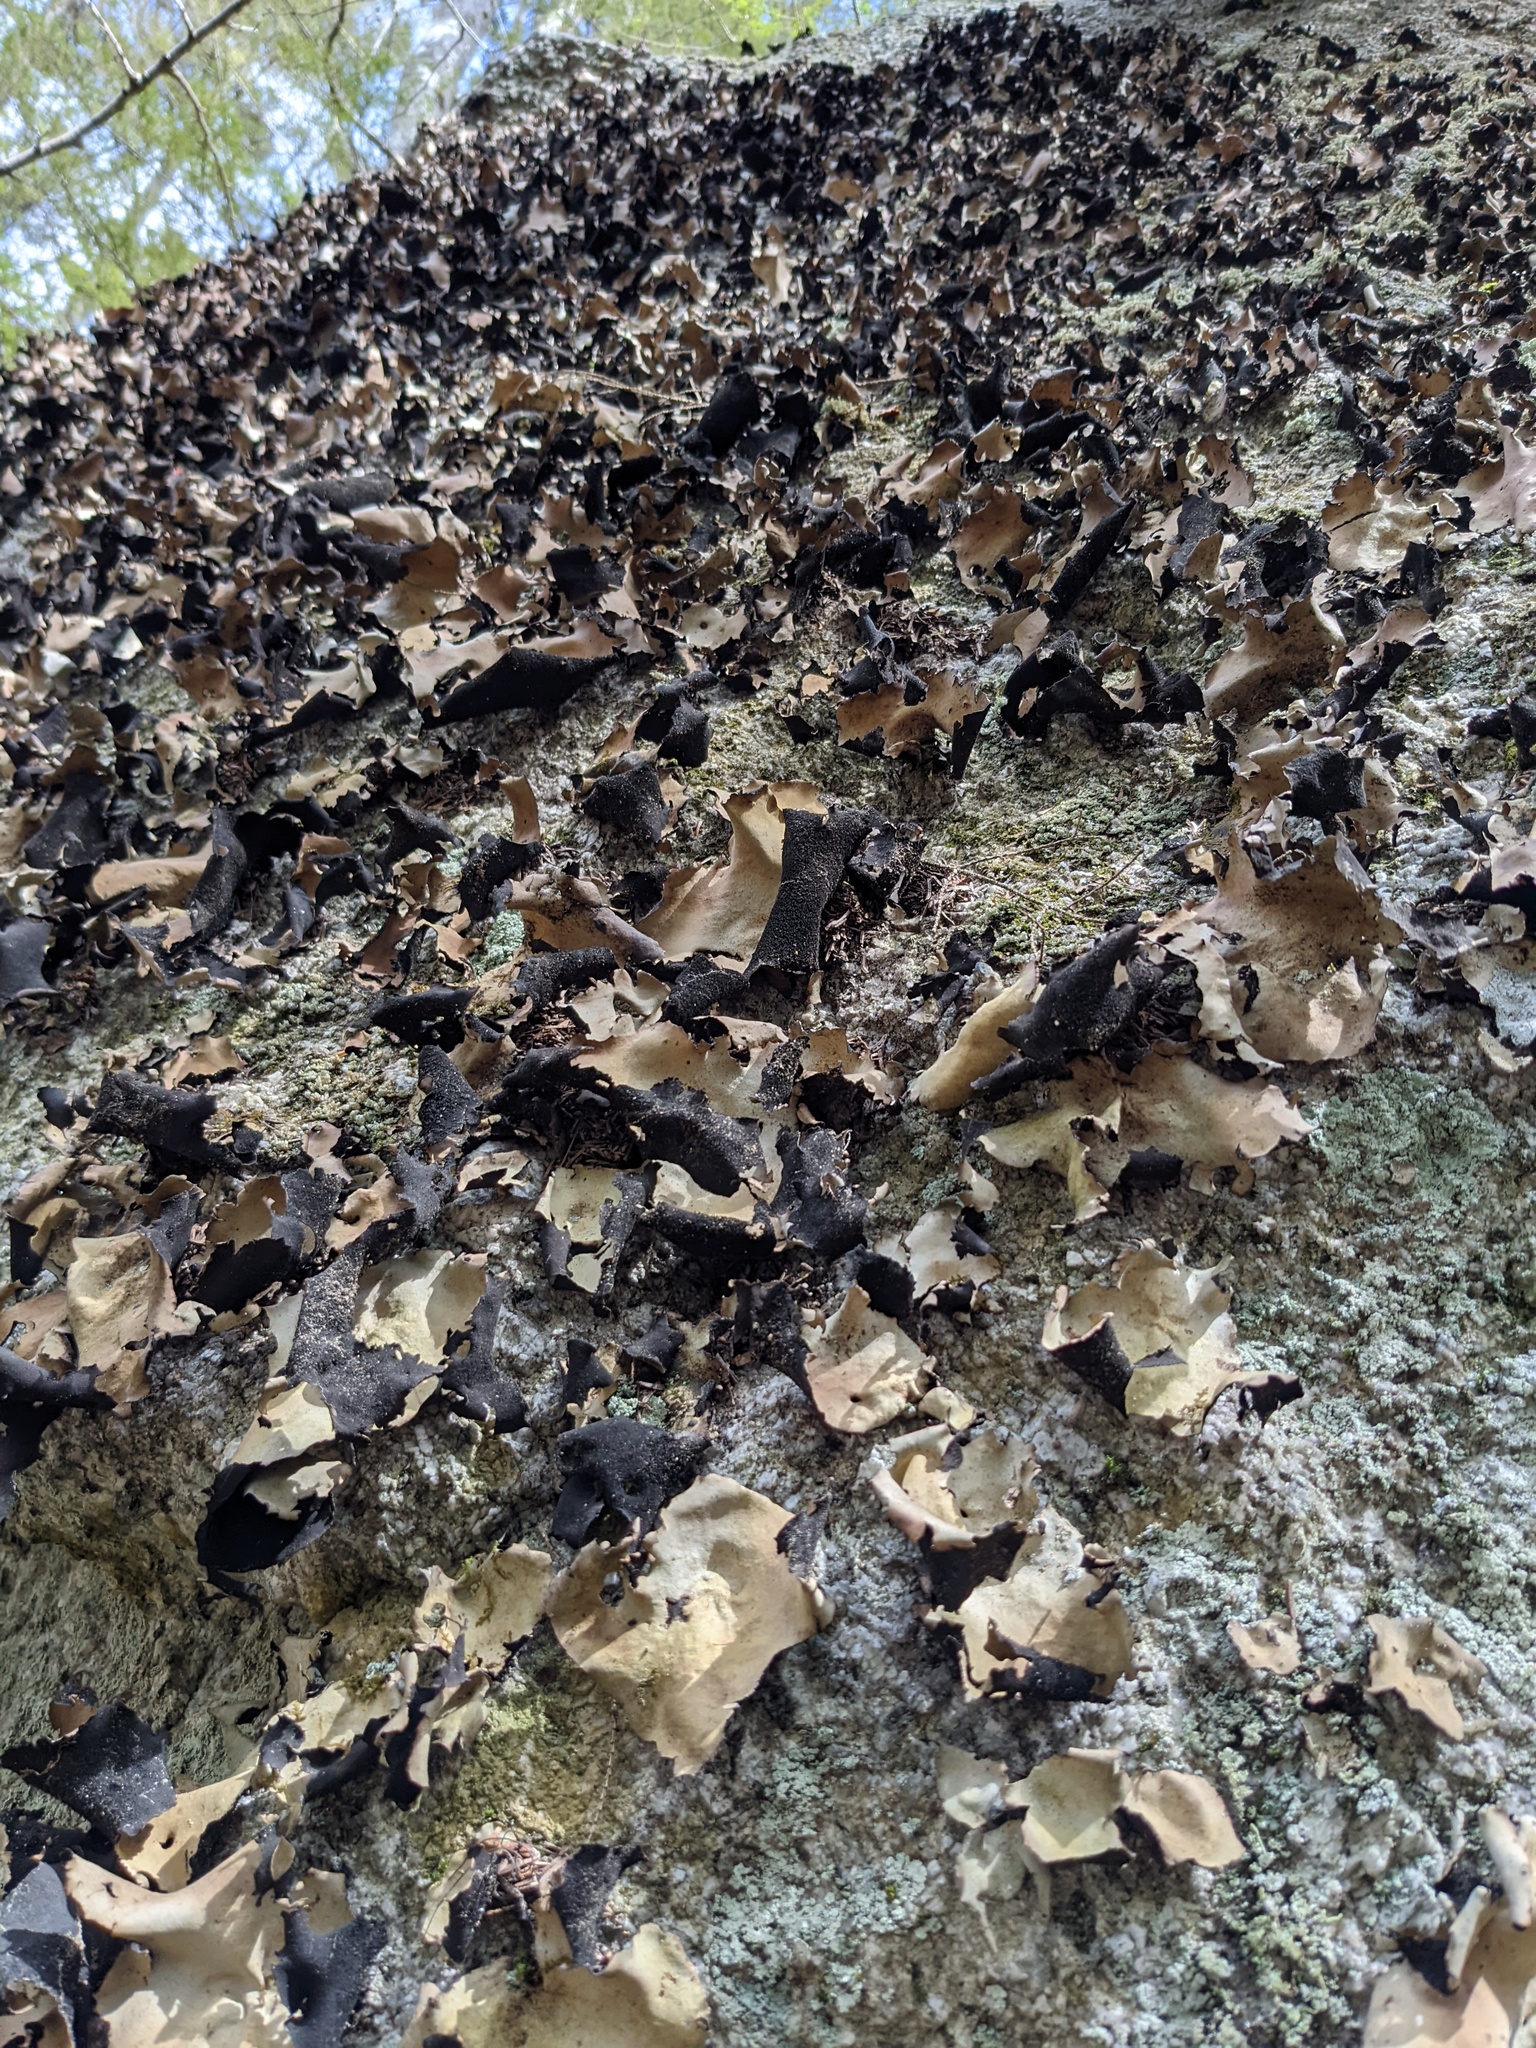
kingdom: Fungi
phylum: Ascomycota
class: Lecanoromycetes
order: Umbilicariales
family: Umbilicariaceae
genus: Umbilicaria
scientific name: Umbilicaria mammulata
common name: Smooth rock tripe
